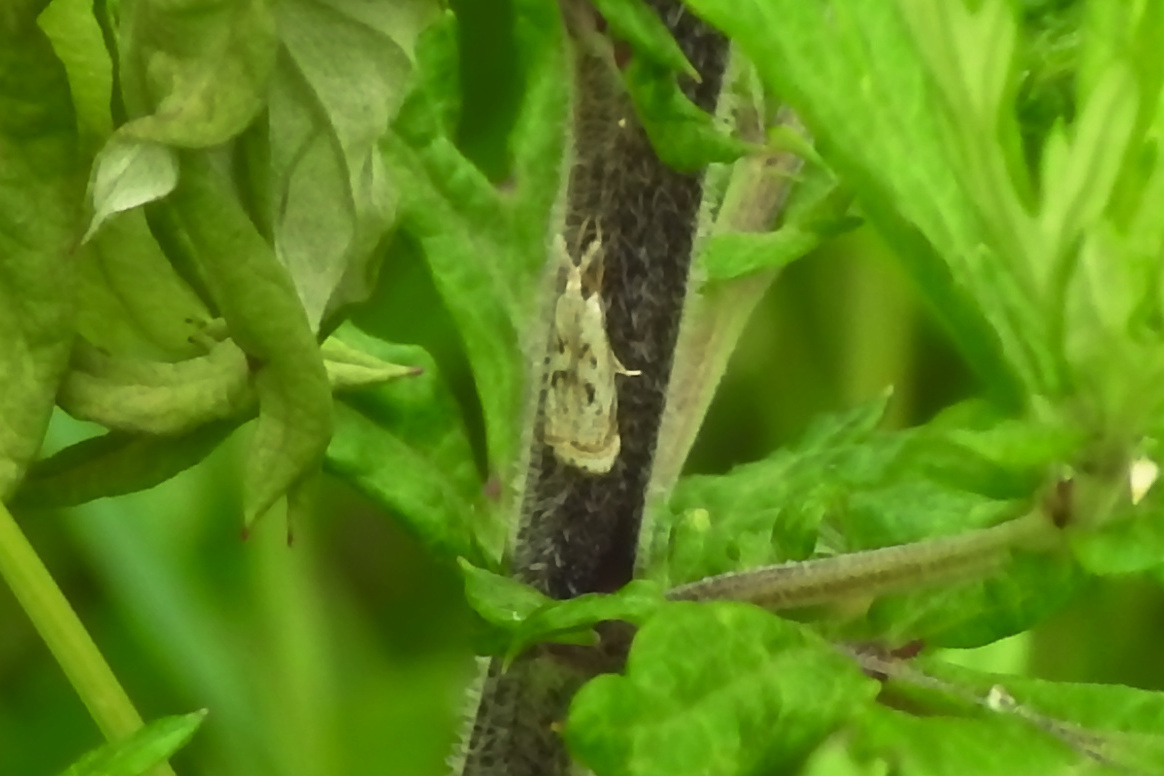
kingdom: Animalia
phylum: Arthropoda
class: Insecta
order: Lepidoptera
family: Crambidae
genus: Microcrambus
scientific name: Microcrambus elegans
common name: Elegant grass-veneer
